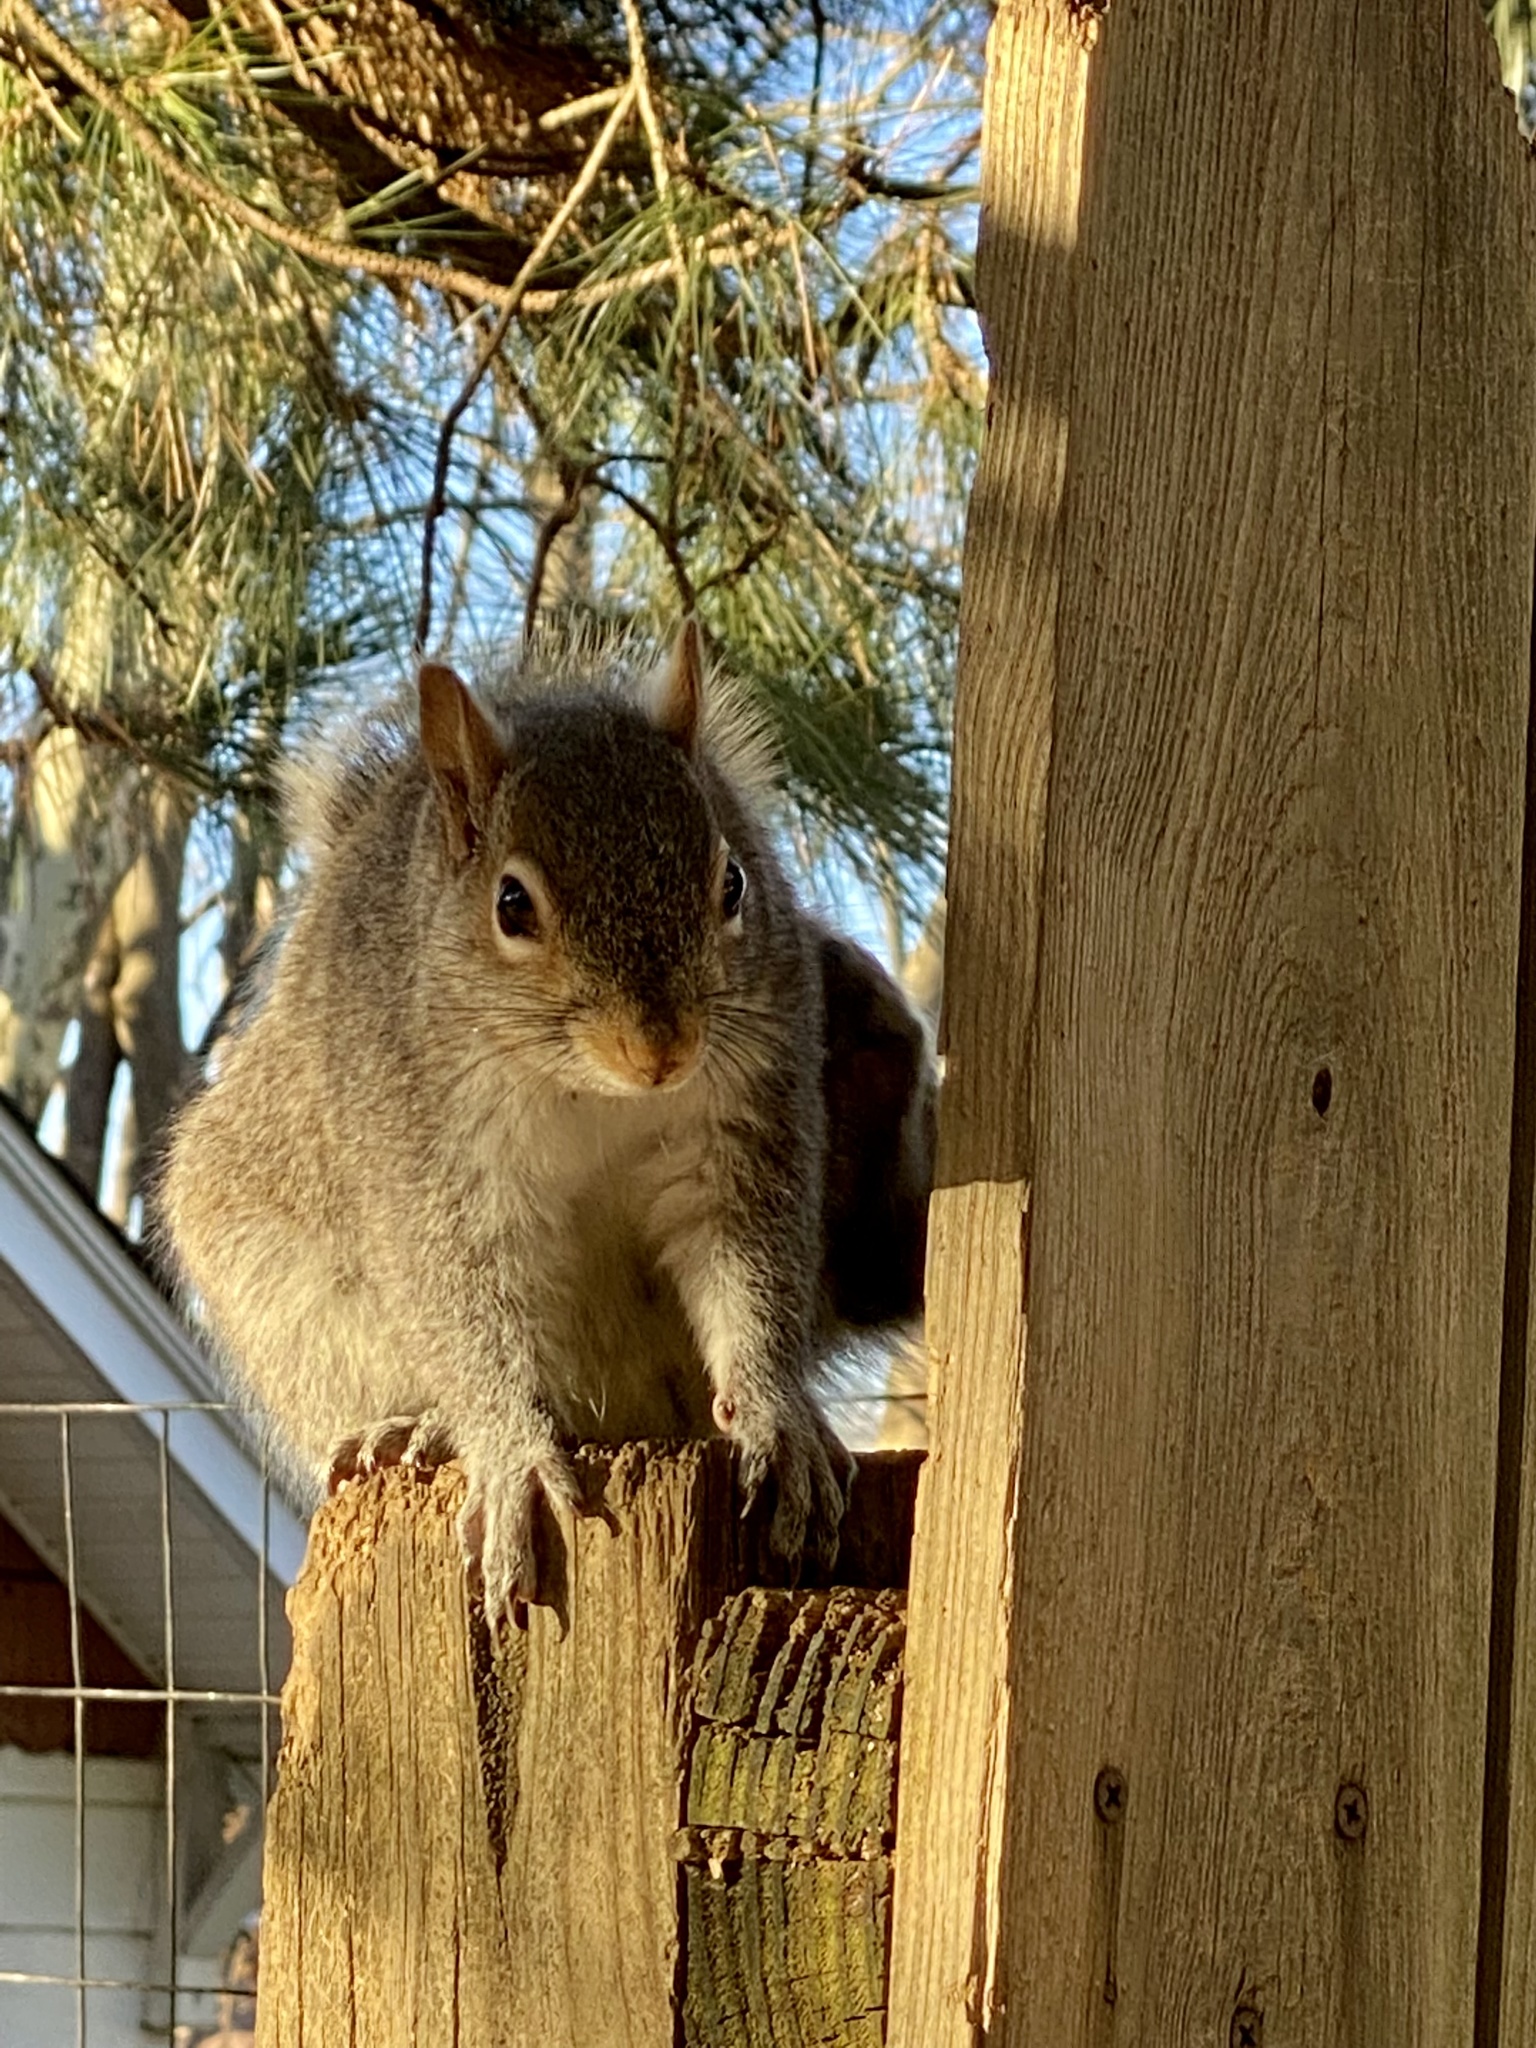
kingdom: Animalia
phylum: Chordata
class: Mammalia
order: Rodentia
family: Sciuridae
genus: Sciurus
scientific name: Sciurus carolinensis
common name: Eastern gray squirrel
